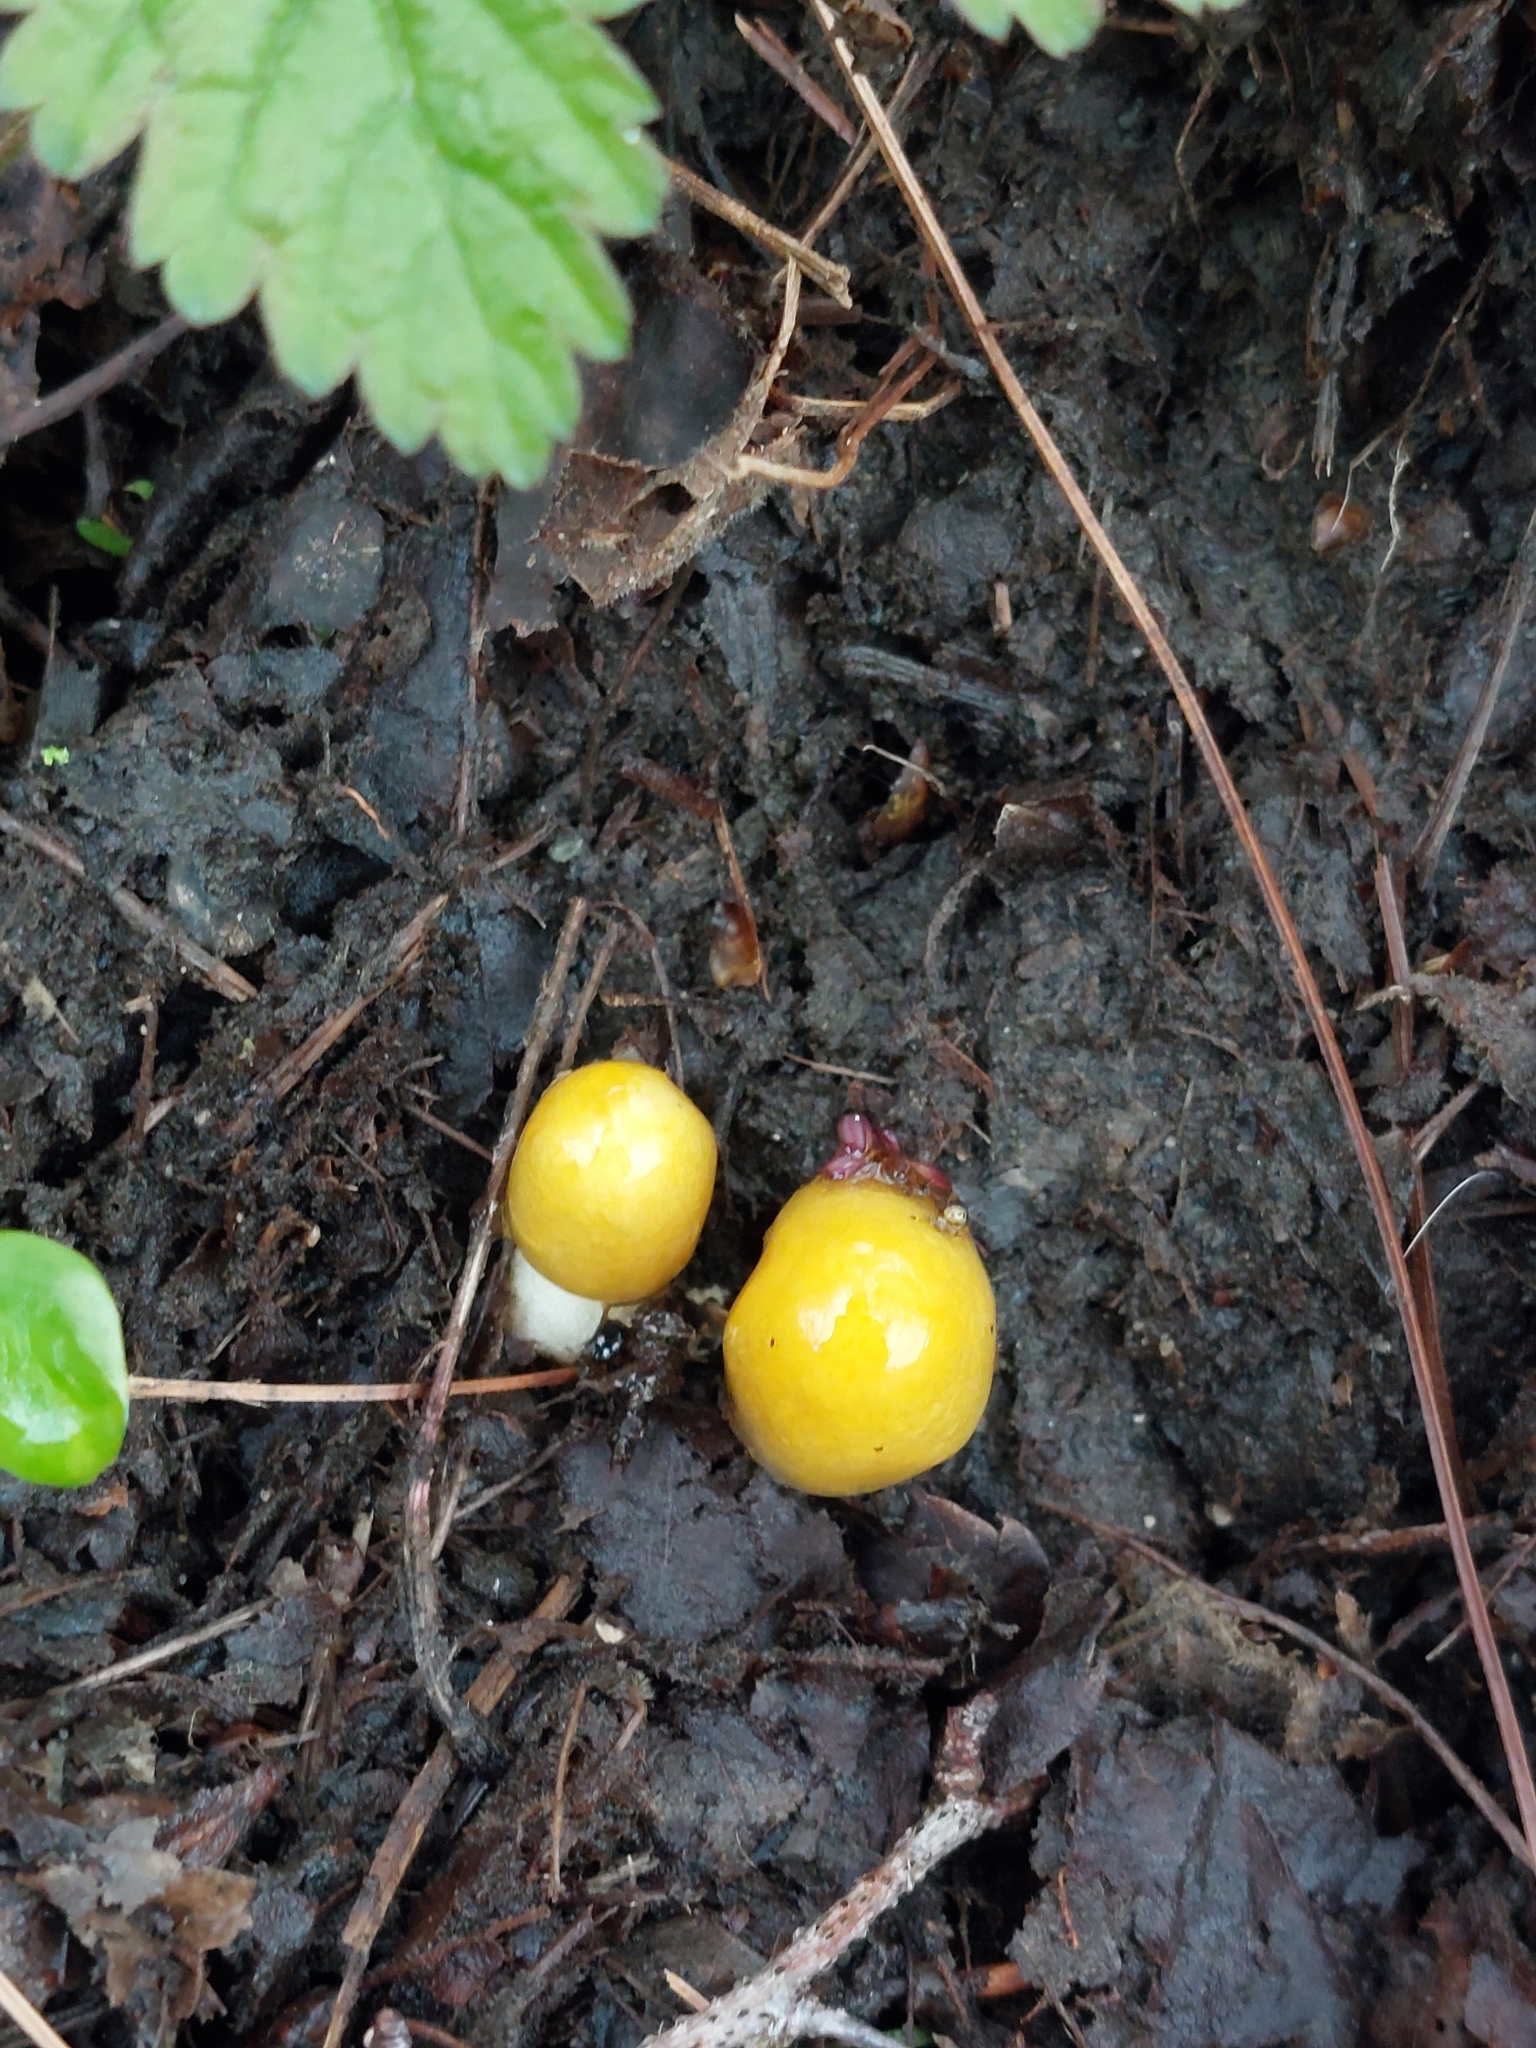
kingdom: Fungi
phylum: Basidiomycota
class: Agaricomycetes
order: Agaricales
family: Bolbitiaceae
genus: Bolbitius
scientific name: Bolbitius titubans
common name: Yellow fieldcap
